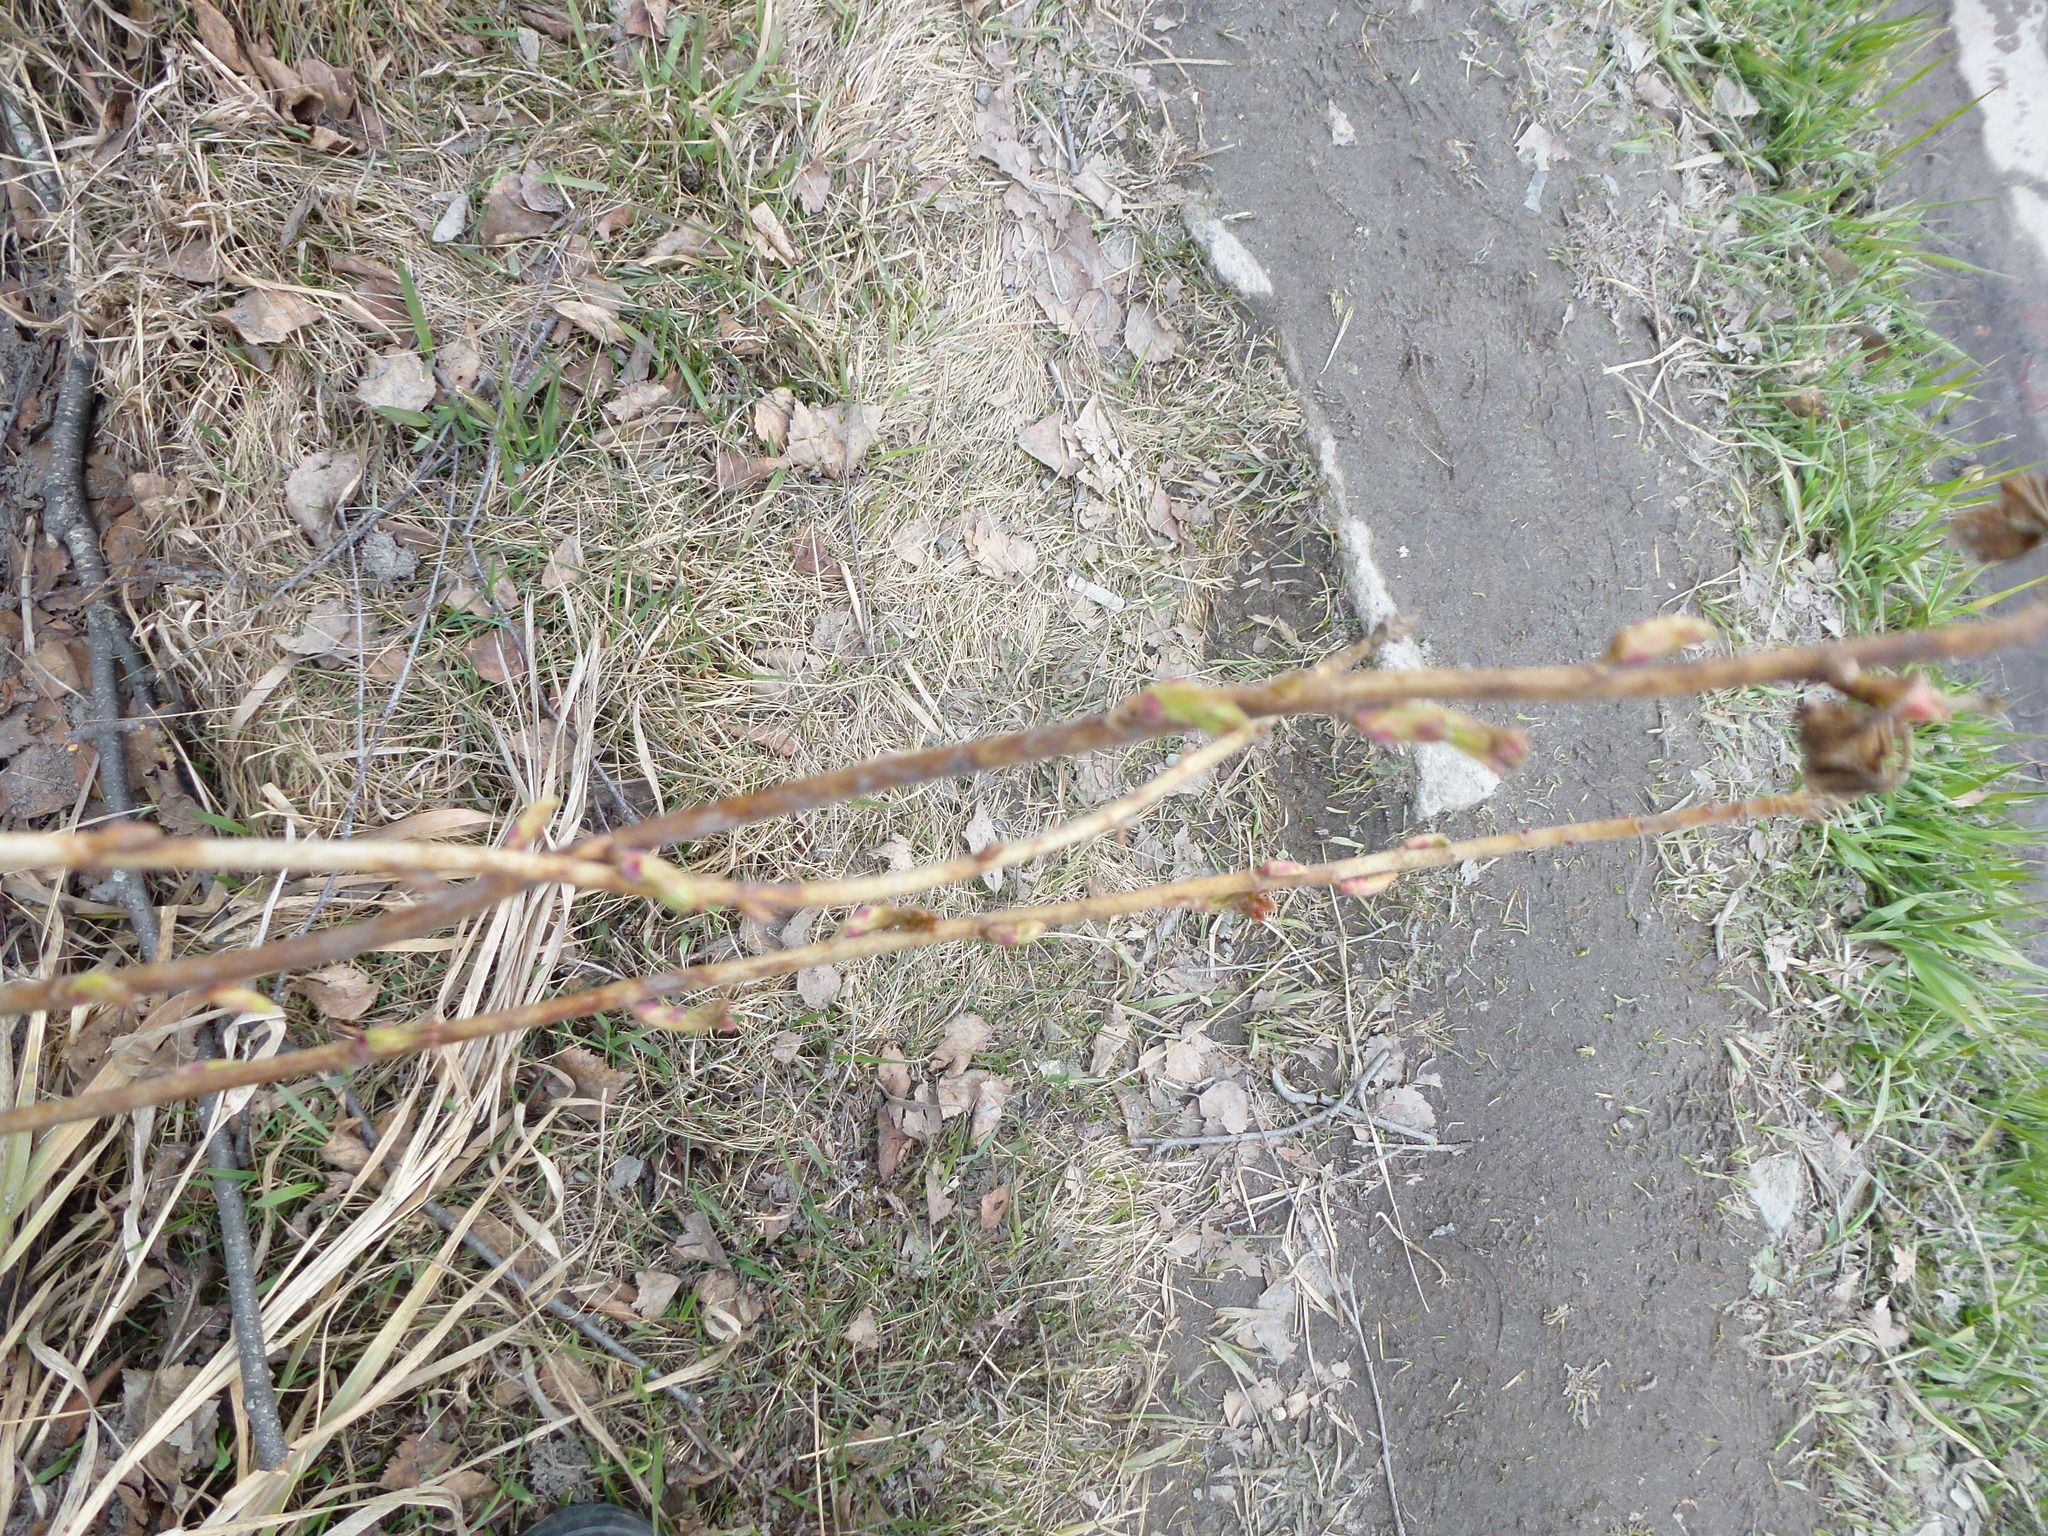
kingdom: Plantae
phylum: Tracheophyta
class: Magnoliopsida
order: Saxifragales
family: Grossulariaceae
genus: Ribes
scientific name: Ribes nigrum
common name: Black currant
